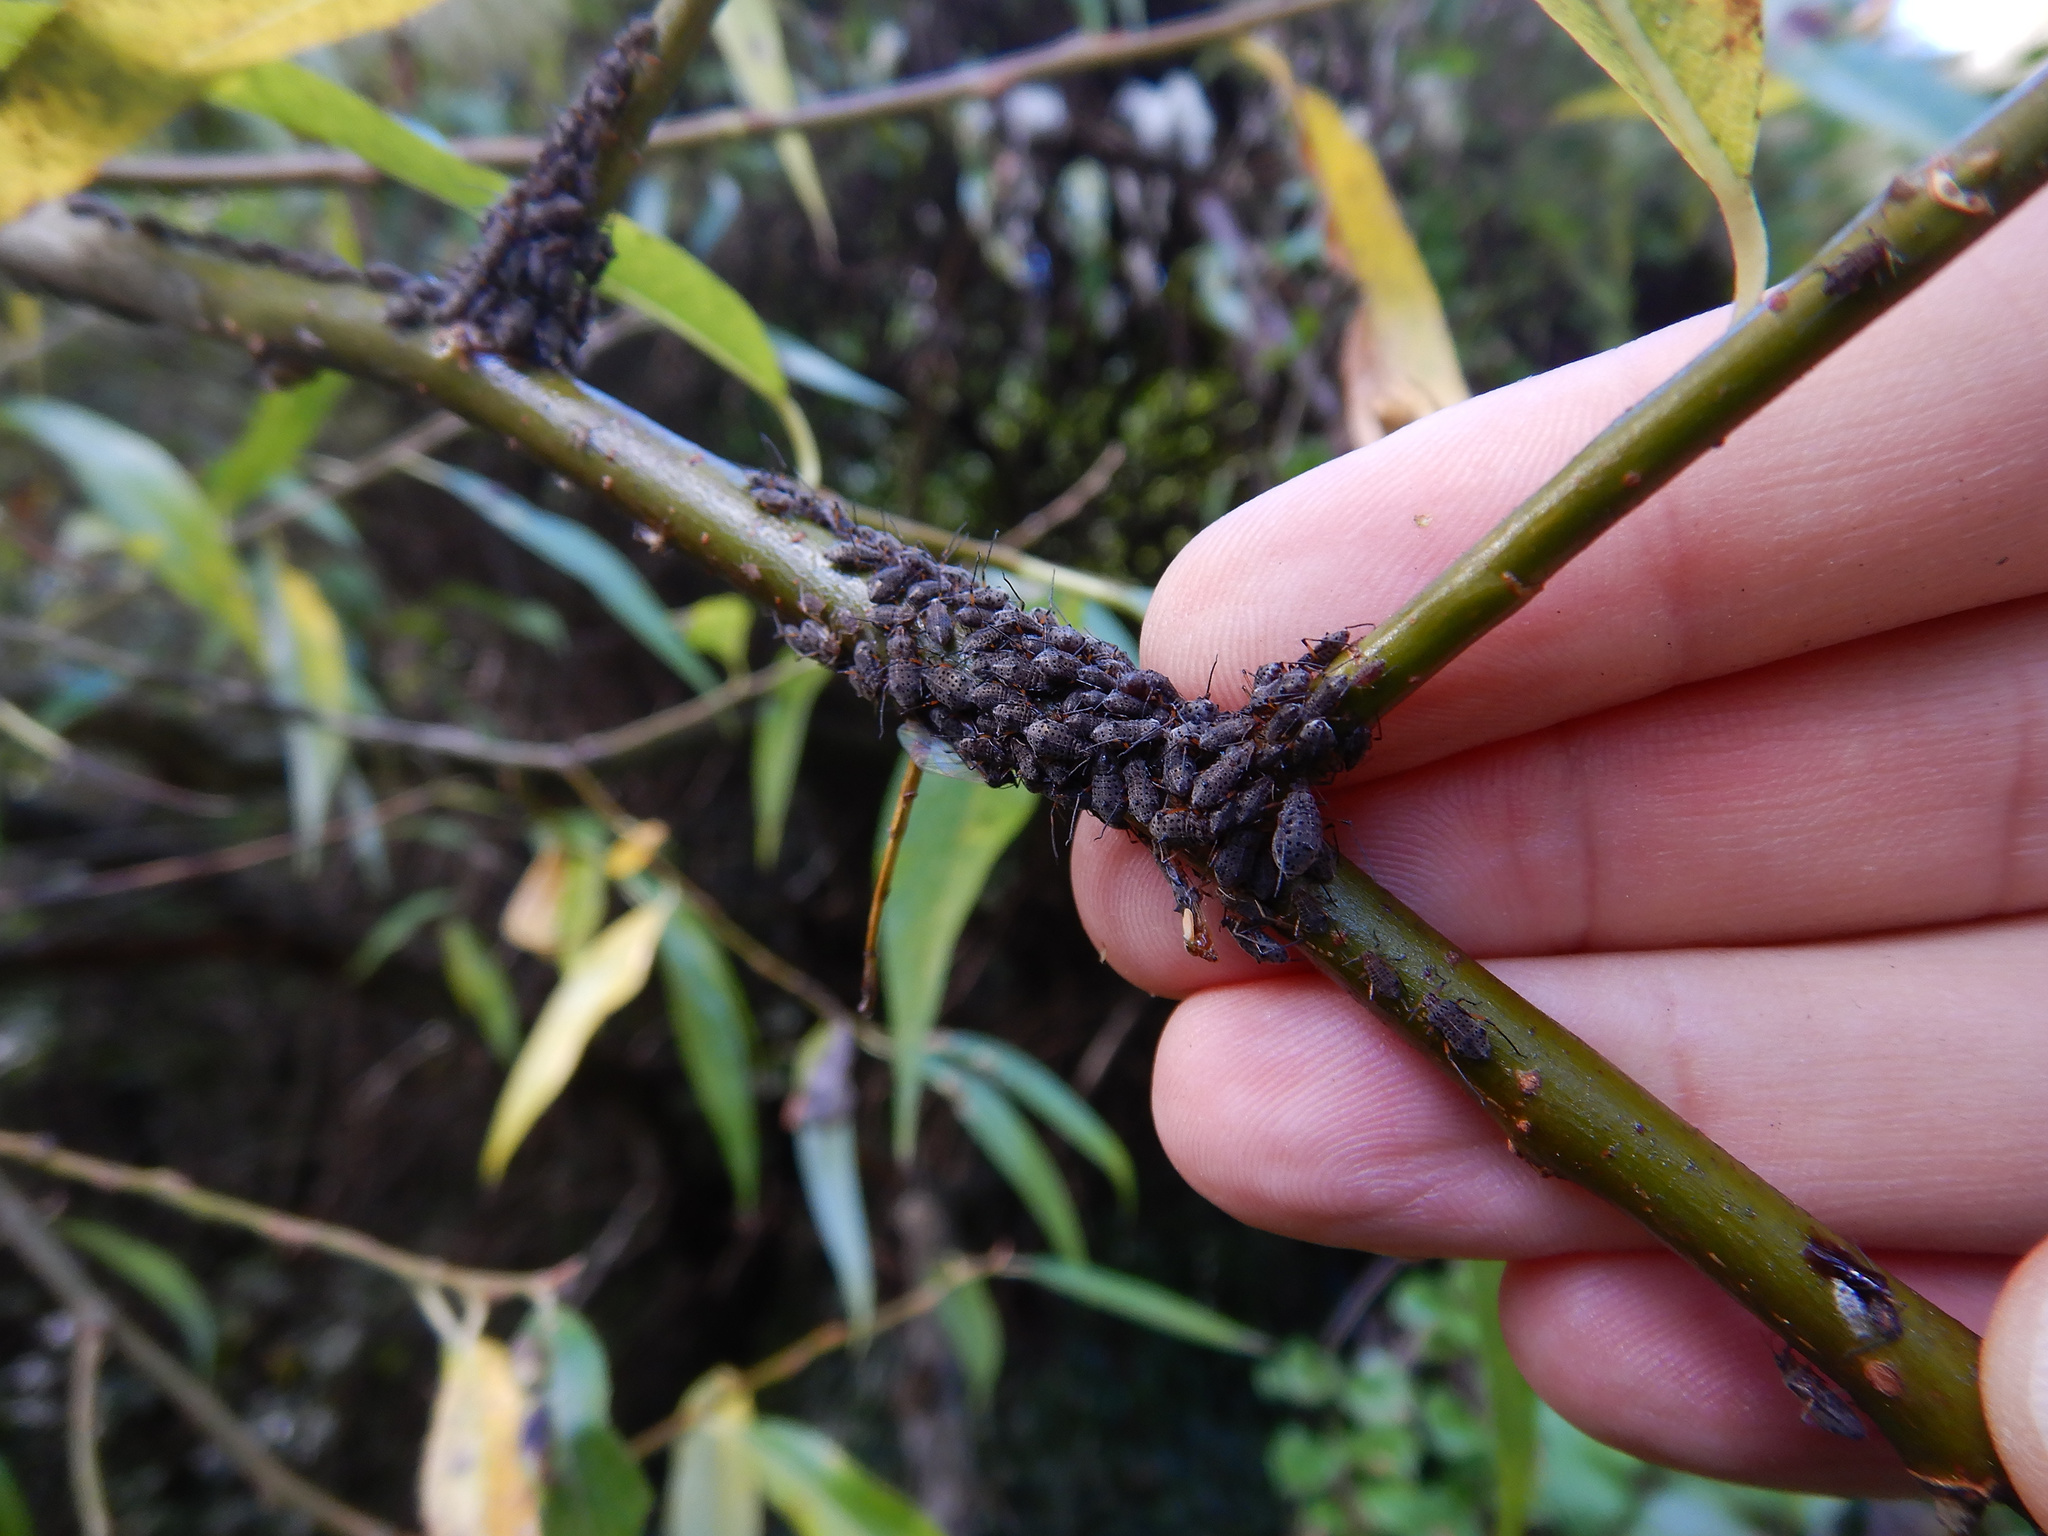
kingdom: Animalia
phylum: Arthropoda
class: Insecta
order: Hemiptera
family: Aphididae
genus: Tuberolachnus
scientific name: Tuberolachnus salignus
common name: Giant willow aphid
